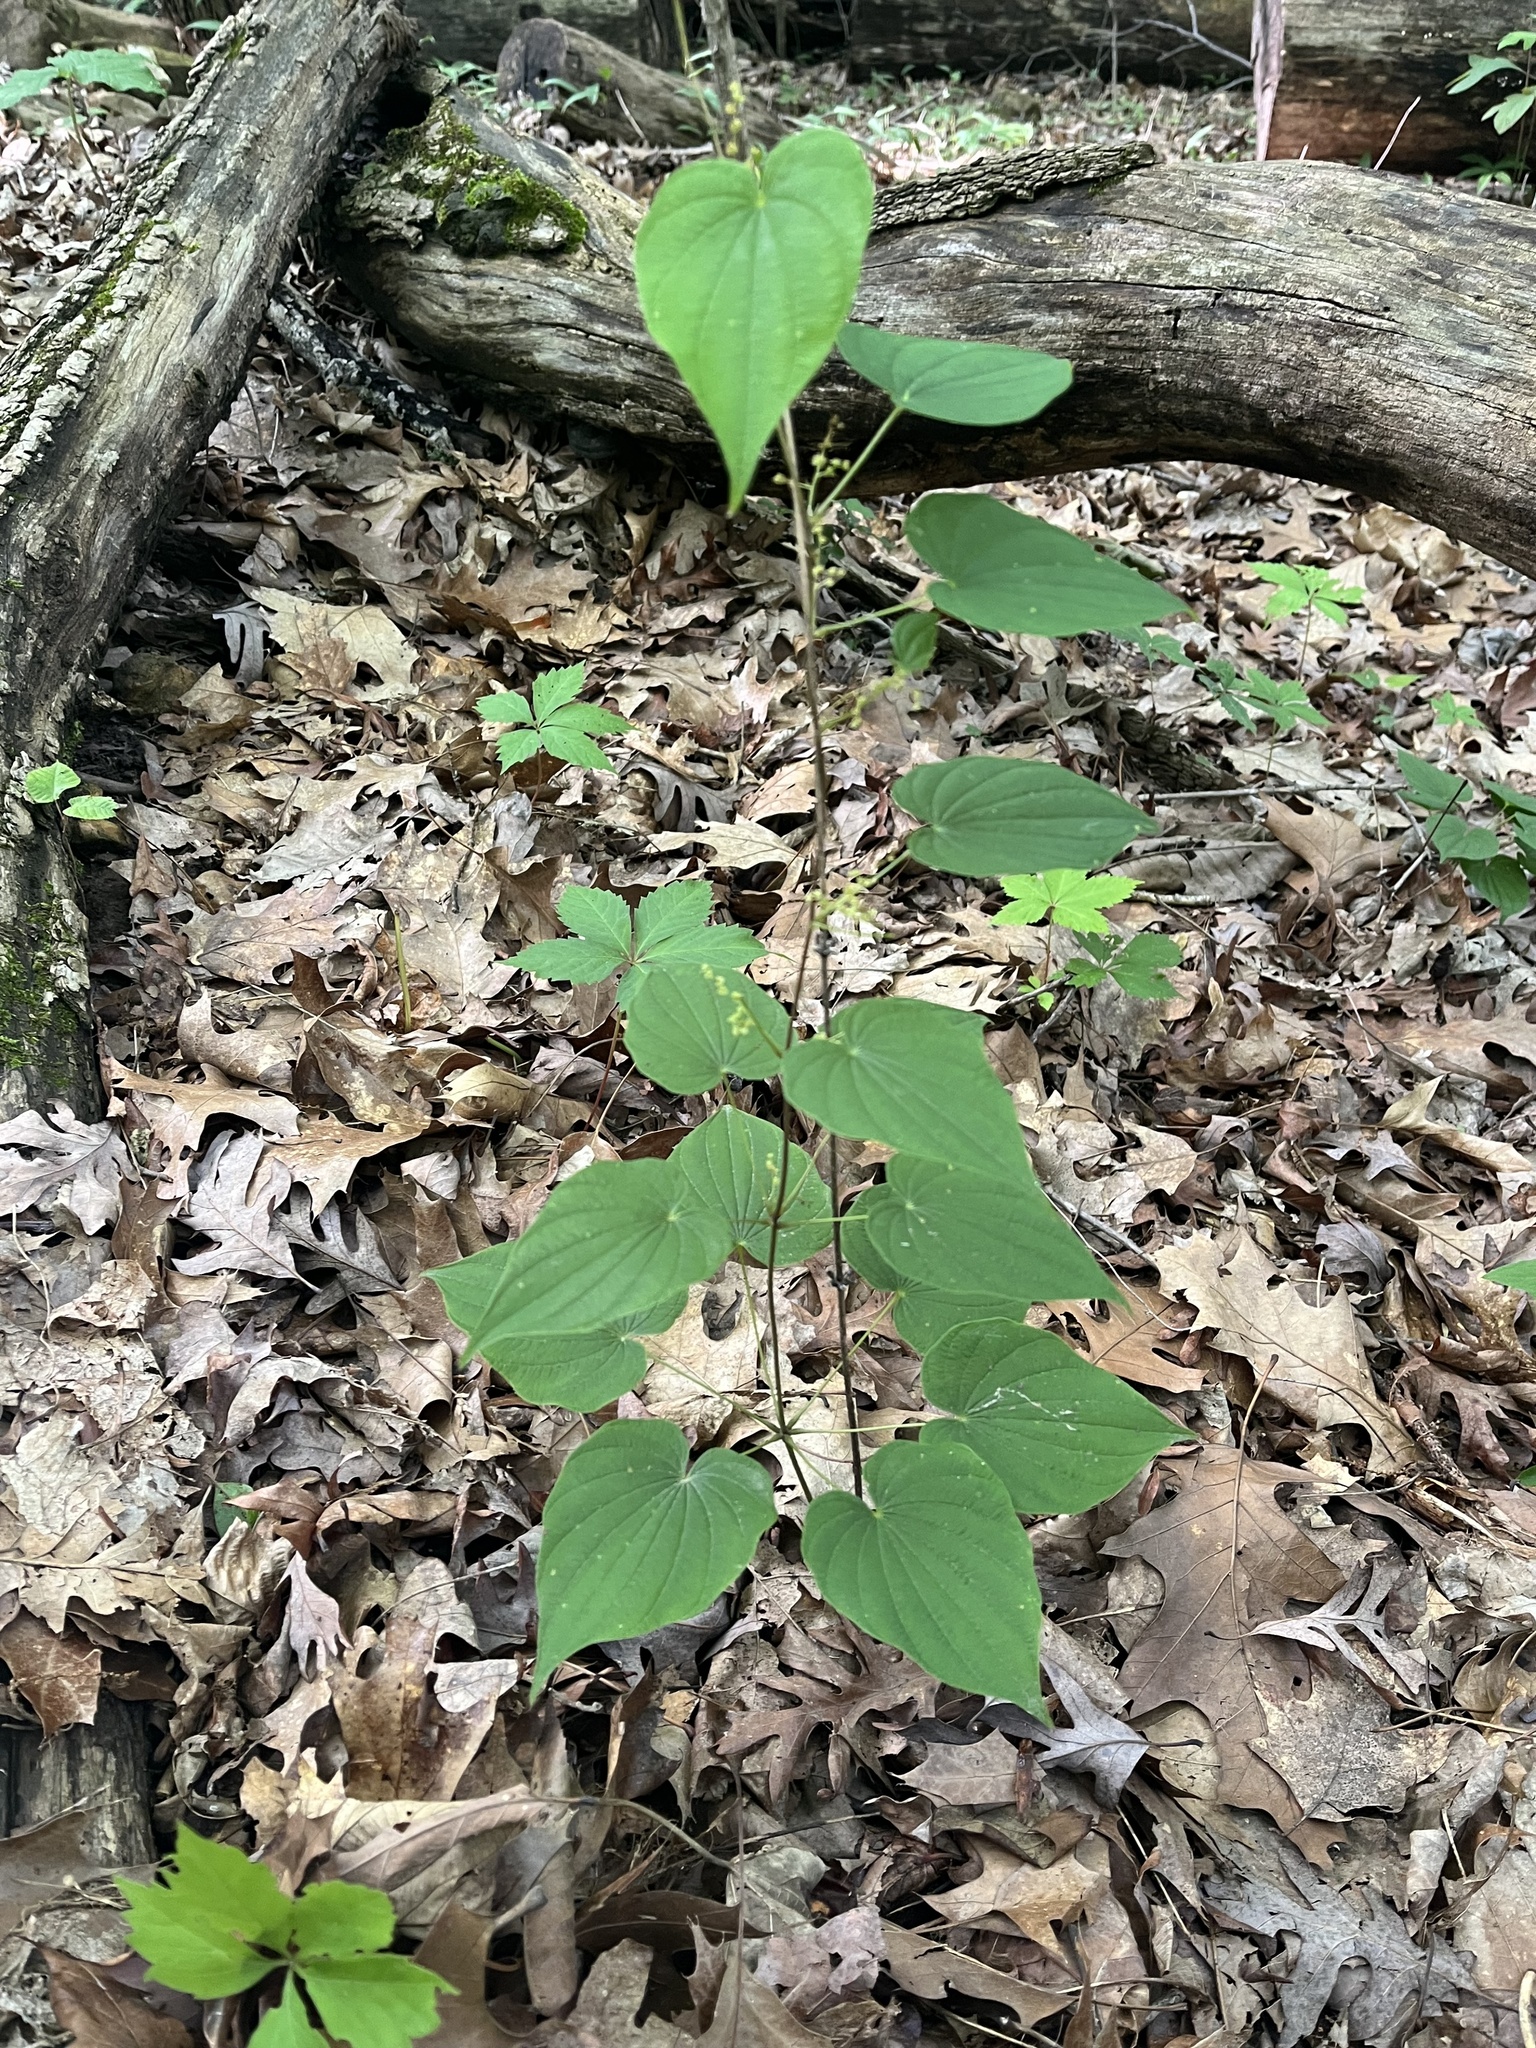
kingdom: Plantae
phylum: Tracheophyta
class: Liliopsida
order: Dioscoreales
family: Dioscoreaceae
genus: Dioscorea
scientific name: Dioscorea villosa
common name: Wild yam
